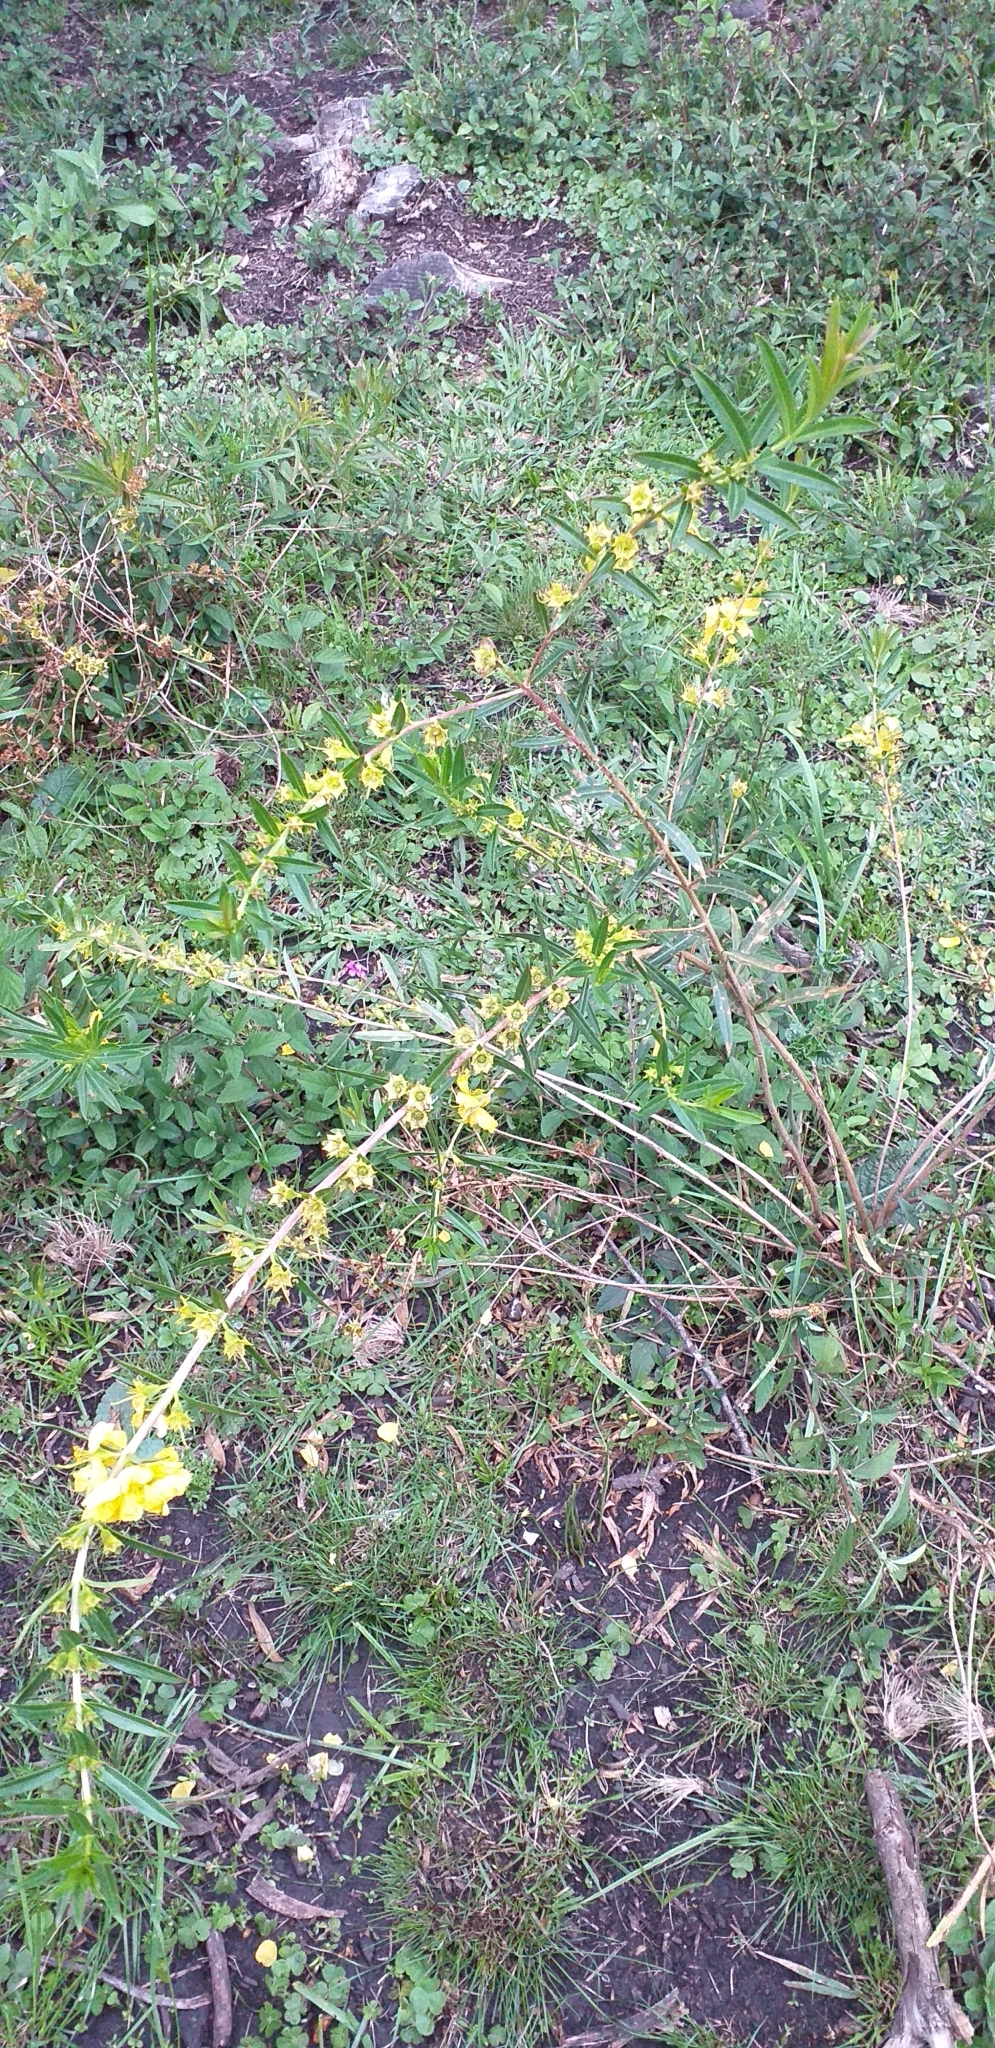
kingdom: Plantae
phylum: Tracheophyta
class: Magnoliopsida
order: Myrtales
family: Lythraceae
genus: Heimia
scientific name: Heimia salicifolia
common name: Willow-leaf heimia
